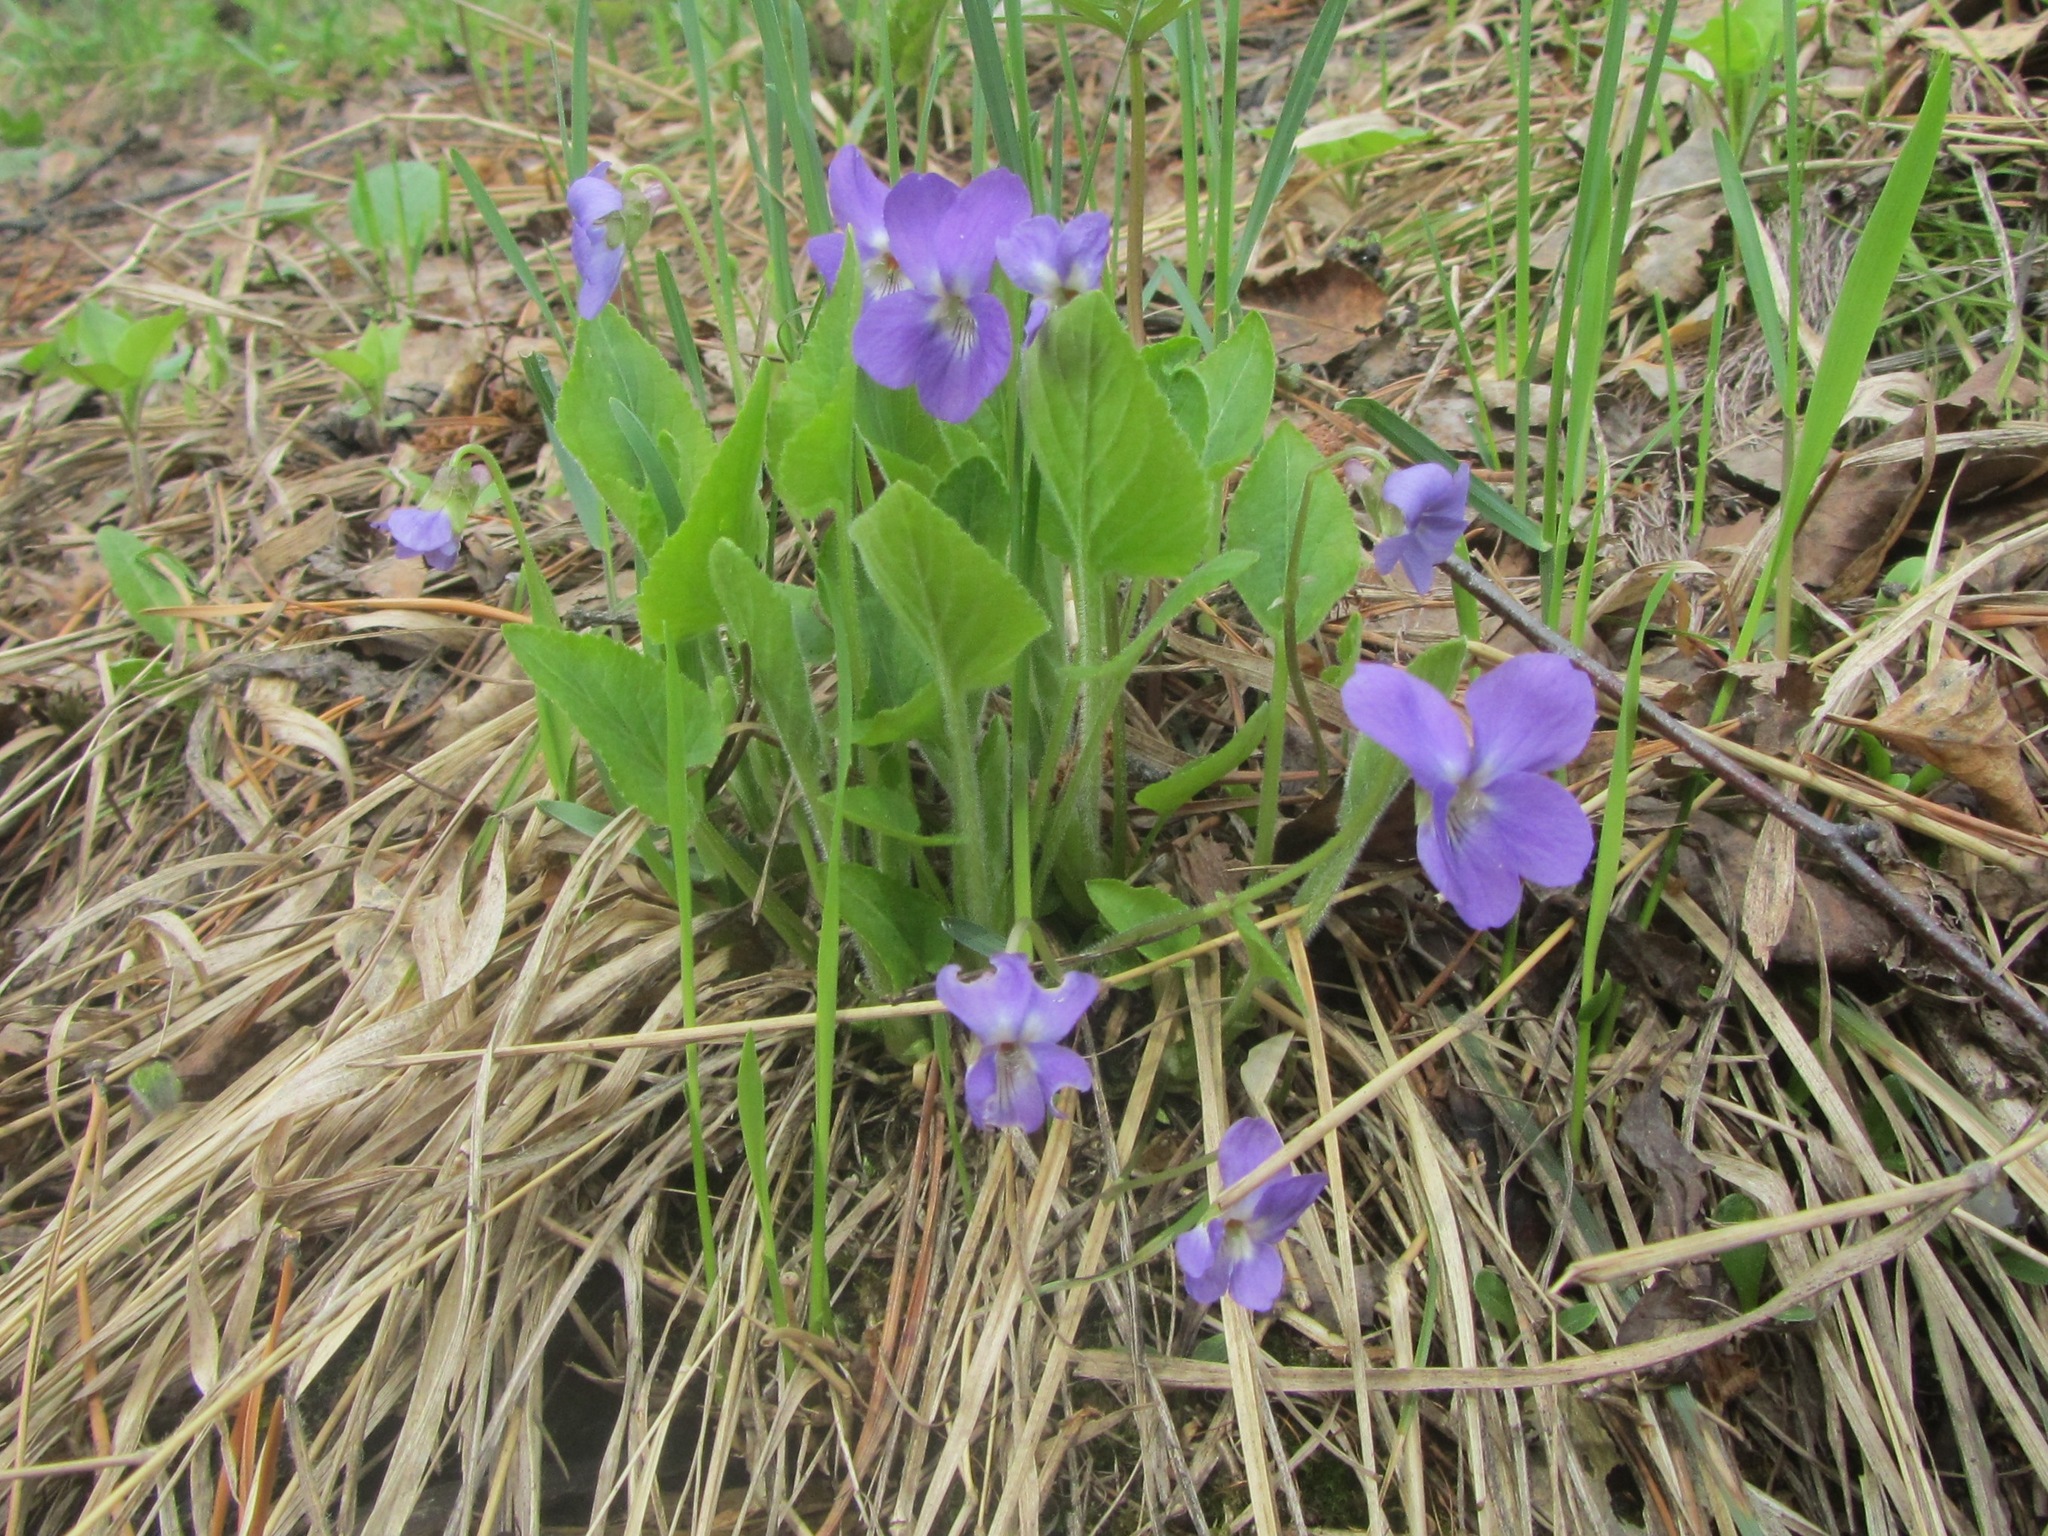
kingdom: Plantae
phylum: Tracheophyta
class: Magnoliopsida
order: Malpighiales
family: Violaceae
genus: Viola
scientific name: Viola hirta
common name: Hairy violet
